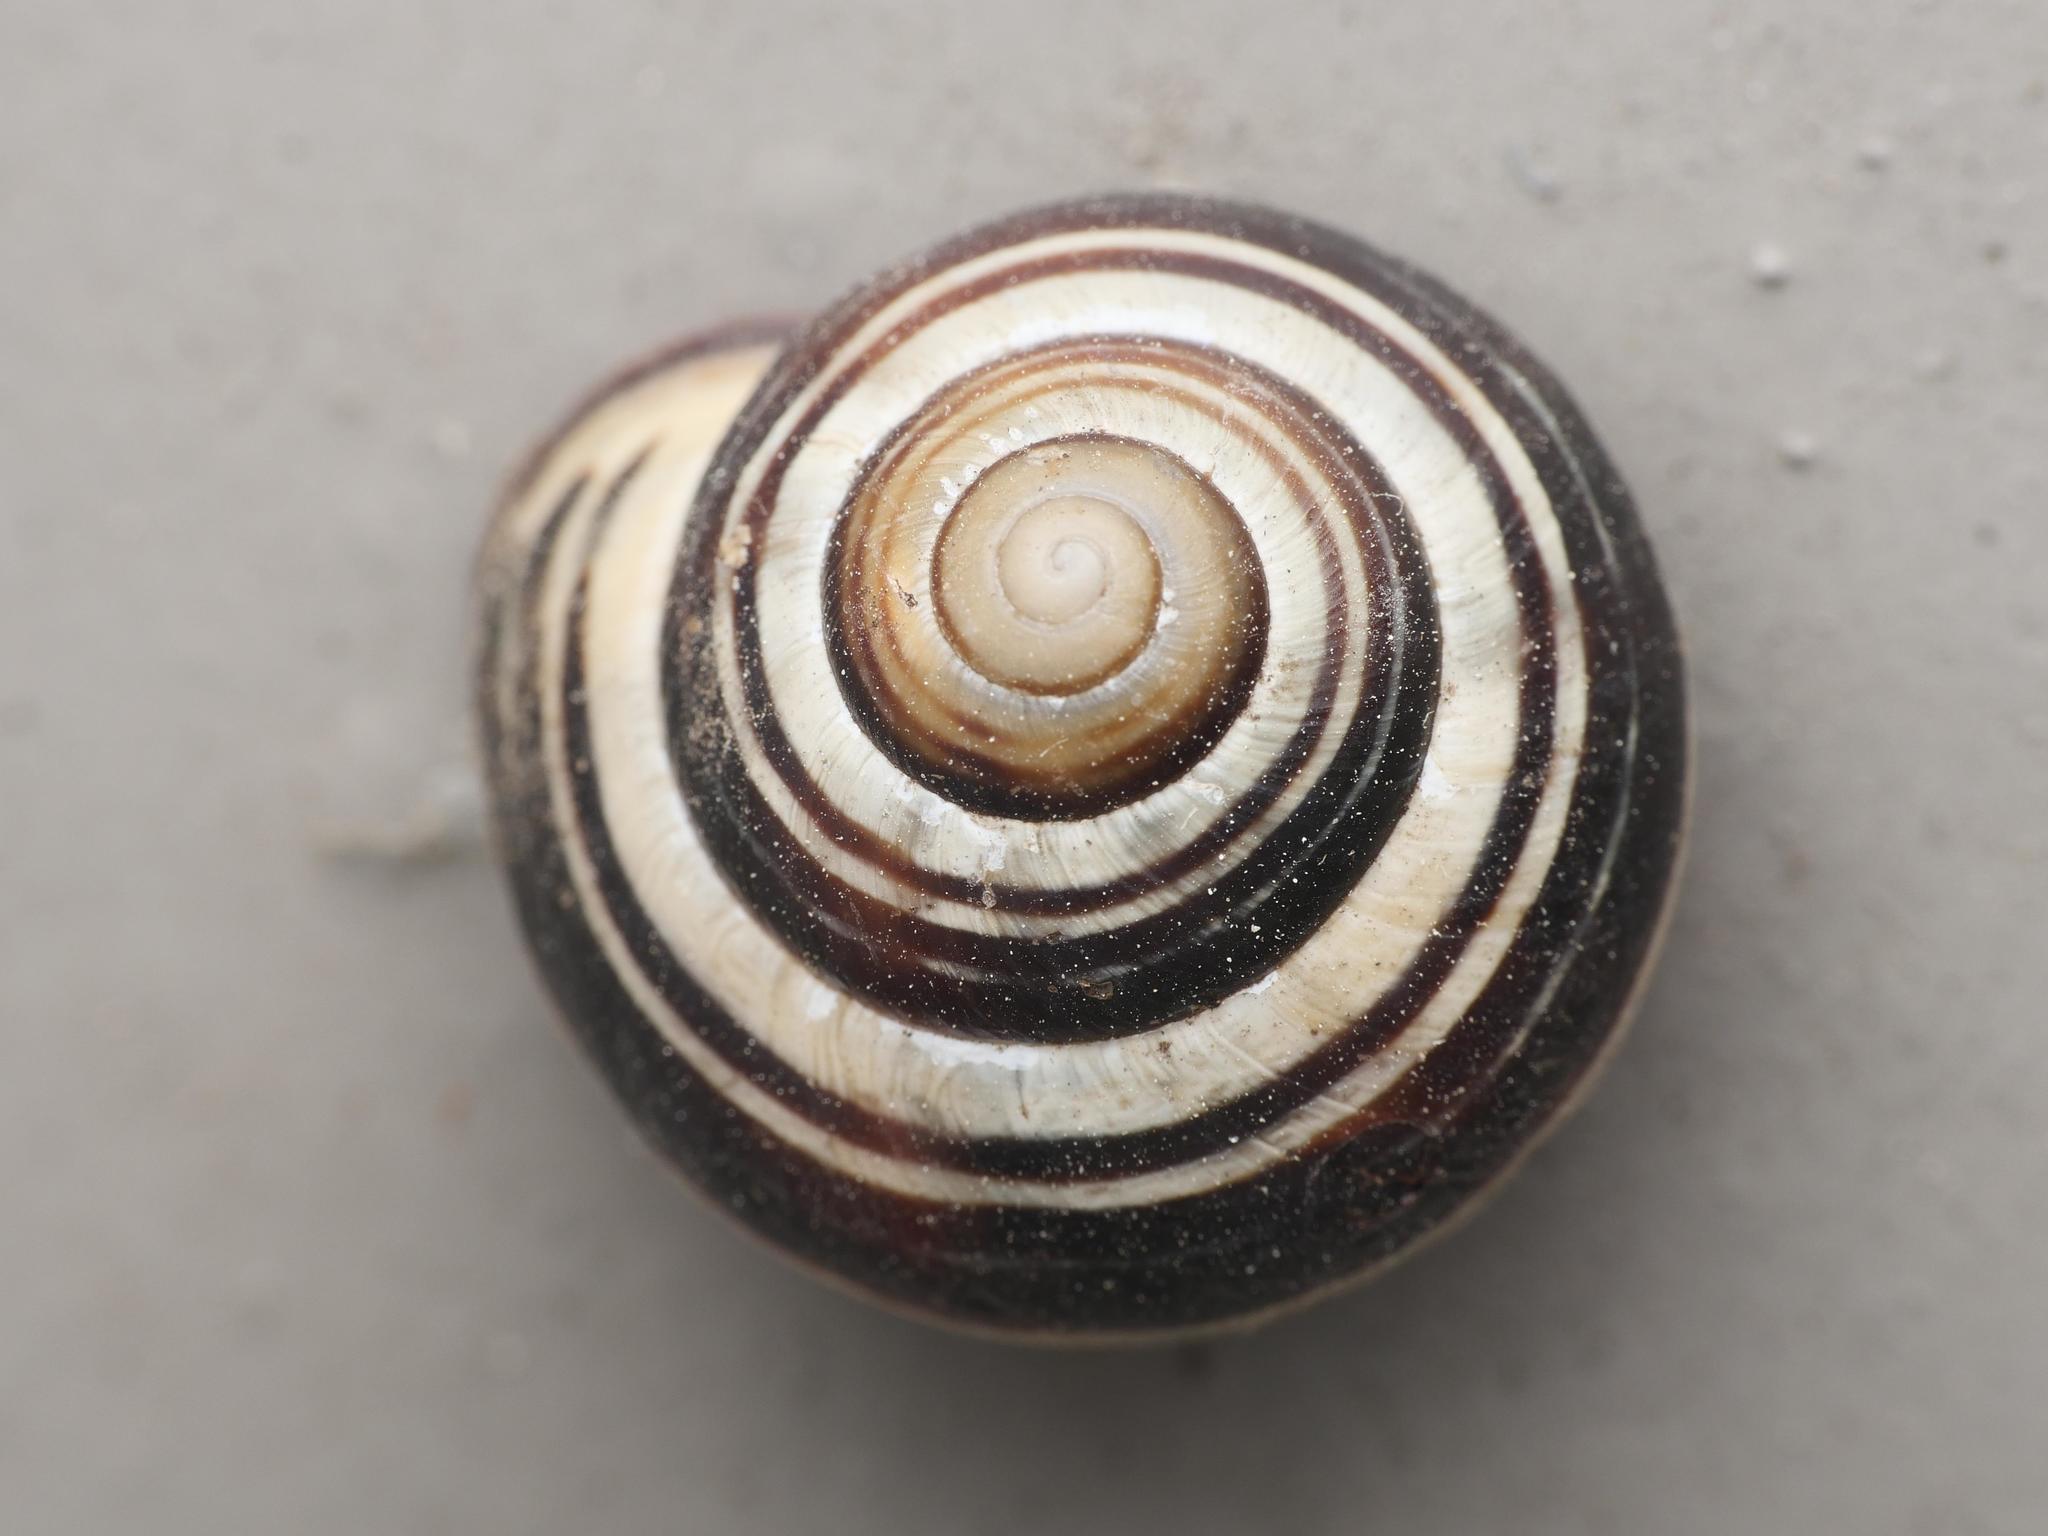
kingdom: Animalia
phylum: Mollusca
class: Gastropoda
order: Stylommatophora
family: Helicidae
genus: Cepaea
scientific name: Cepaea nemoralis
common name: Grovesnail
